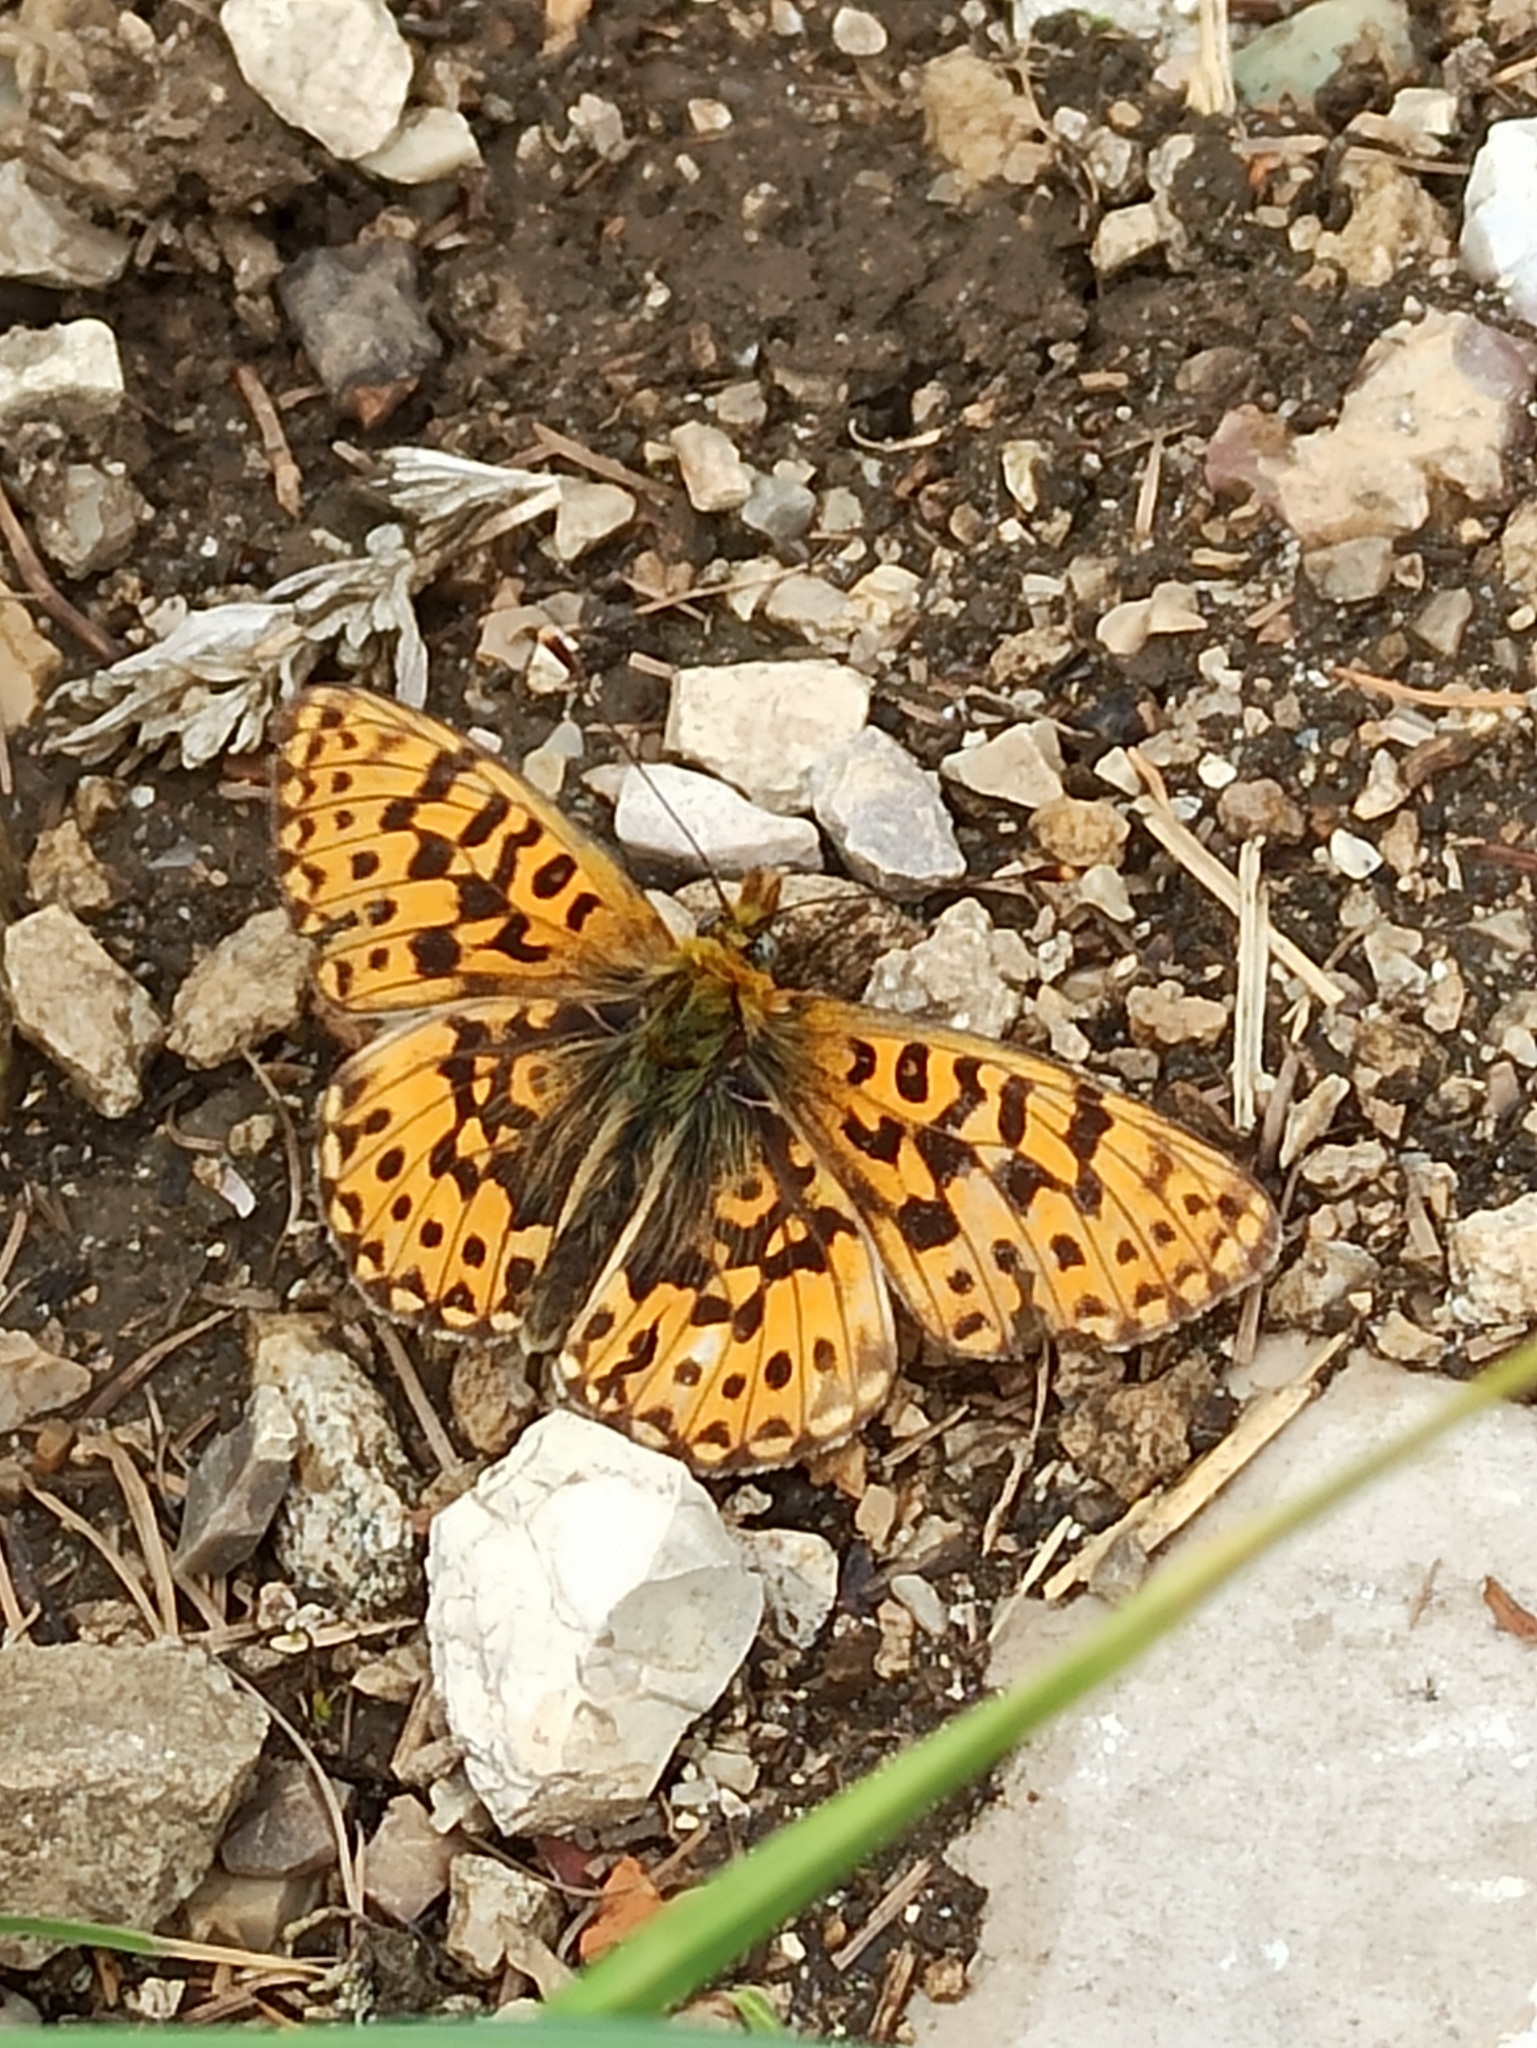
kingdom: Animalia
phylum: Arthropoda
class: Insecta
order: Lepidoptera
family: Nymphalidae
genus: Clossiana
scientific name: Clossiana euphrosyne
